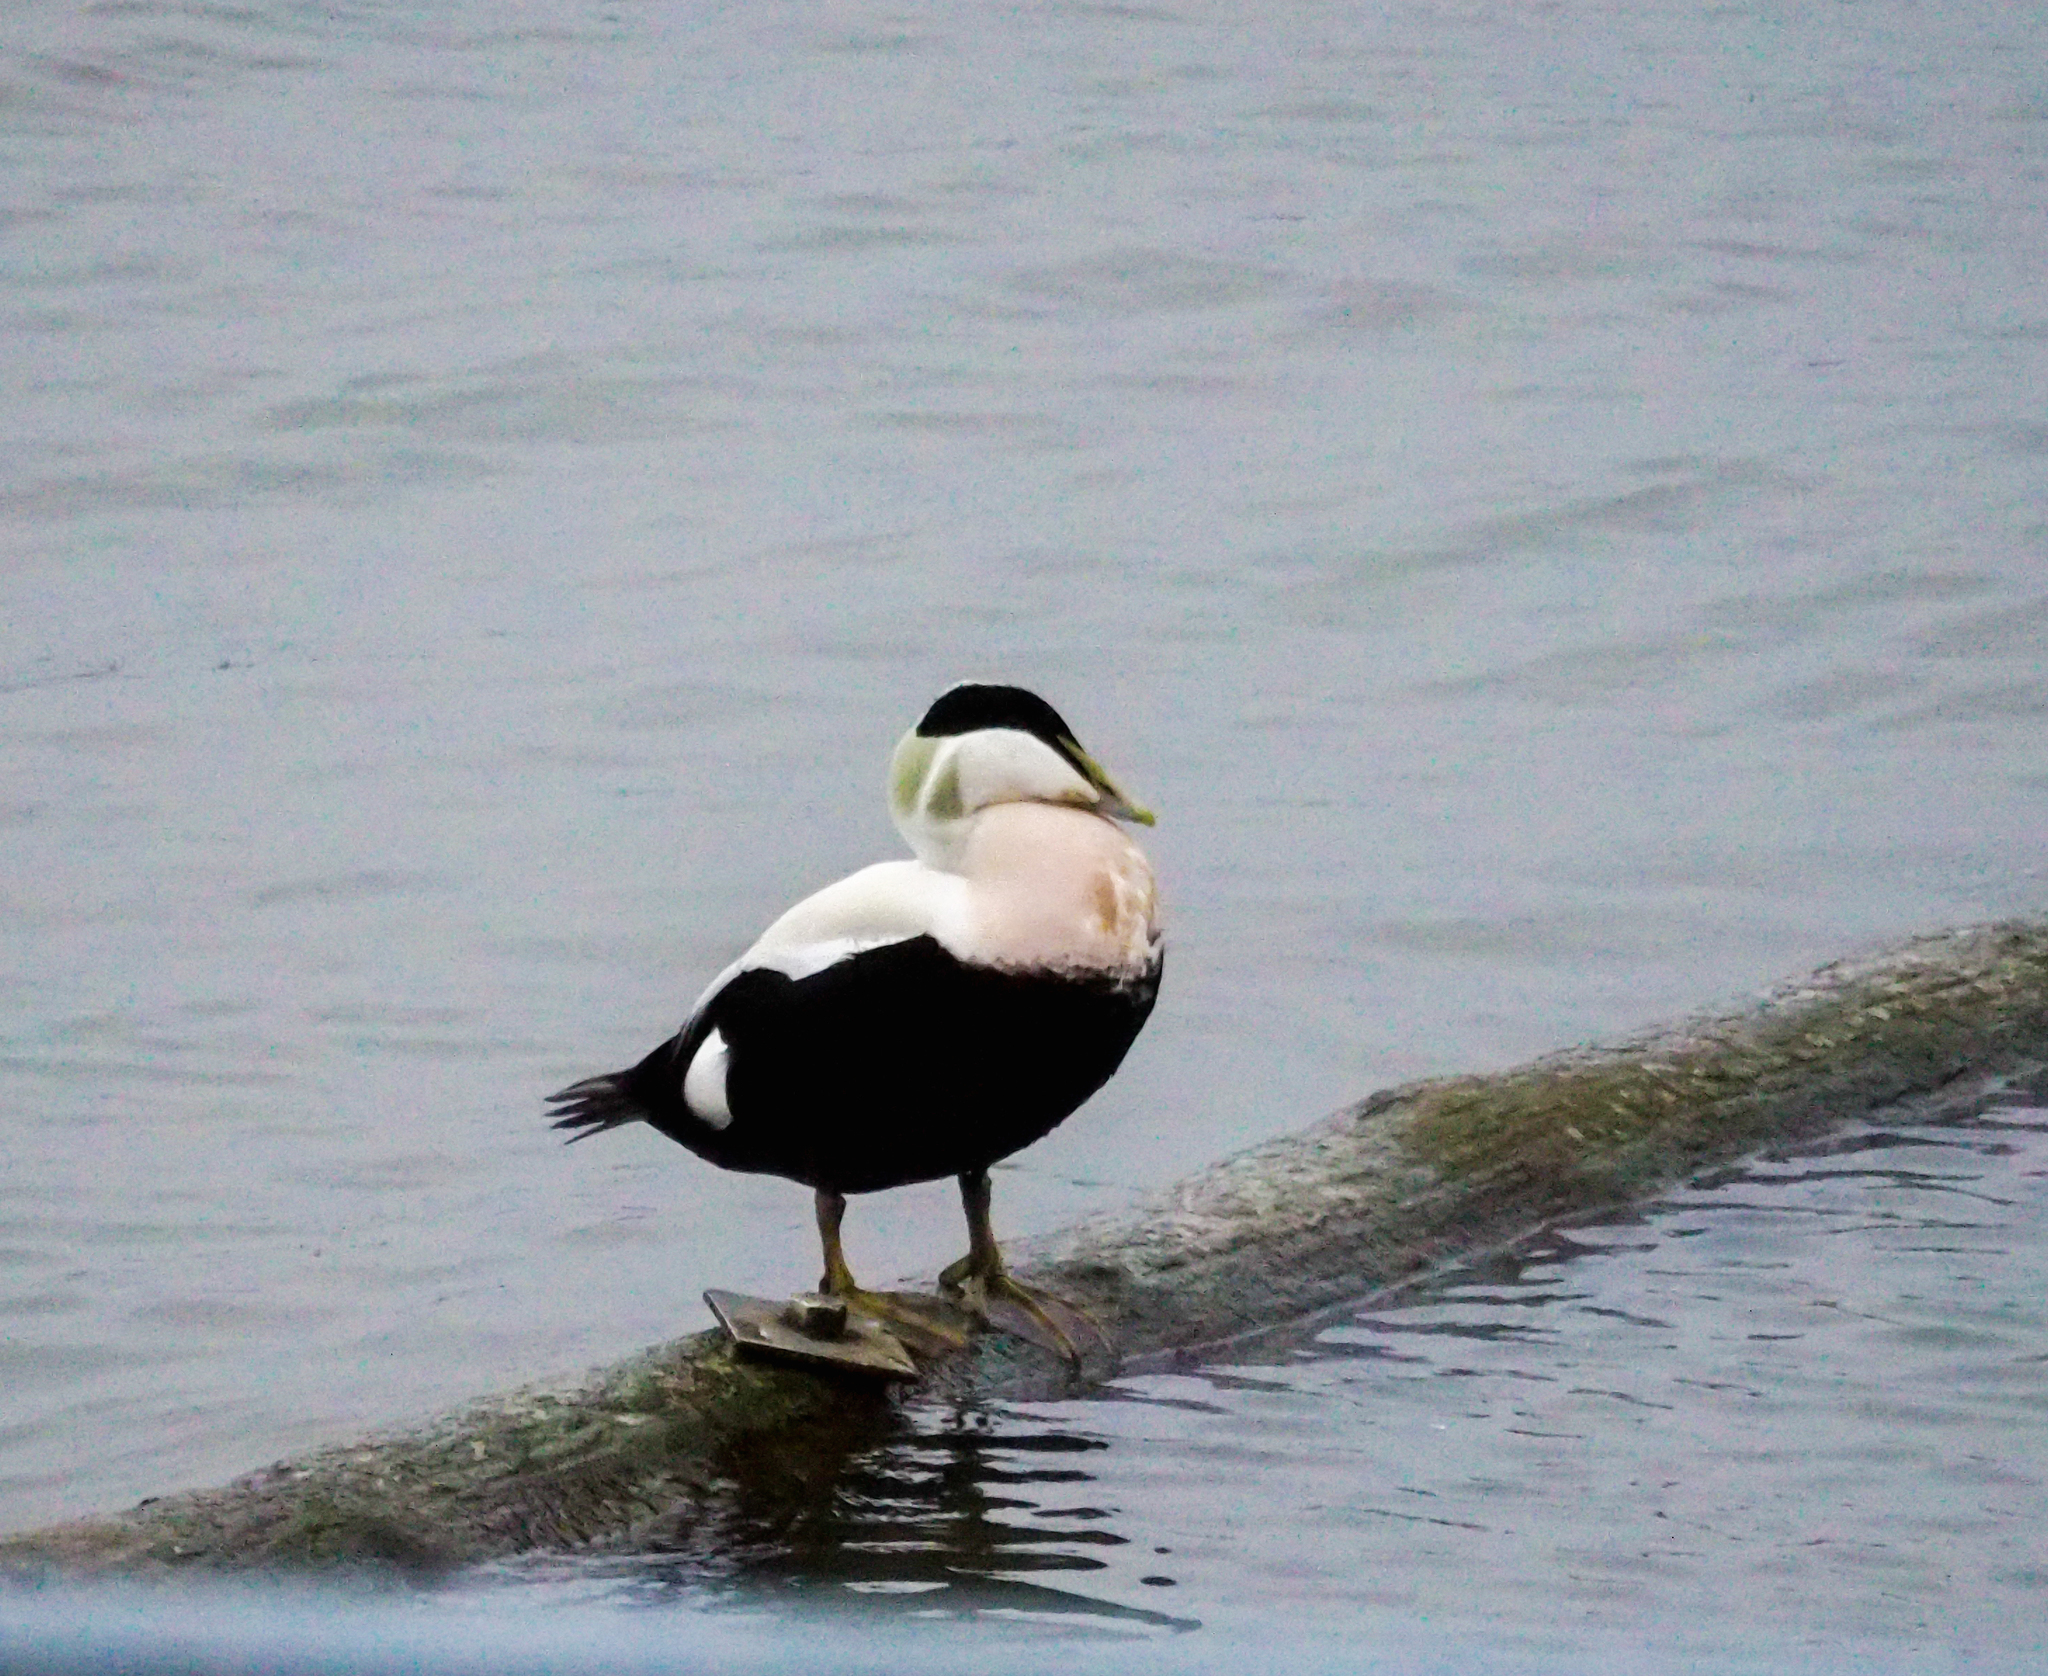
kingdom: Animalia
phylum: Chordata
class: Aves
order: Anseriformes
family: Anatidae
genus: Somateria
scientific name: Somateria mollissima
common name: Common eider
